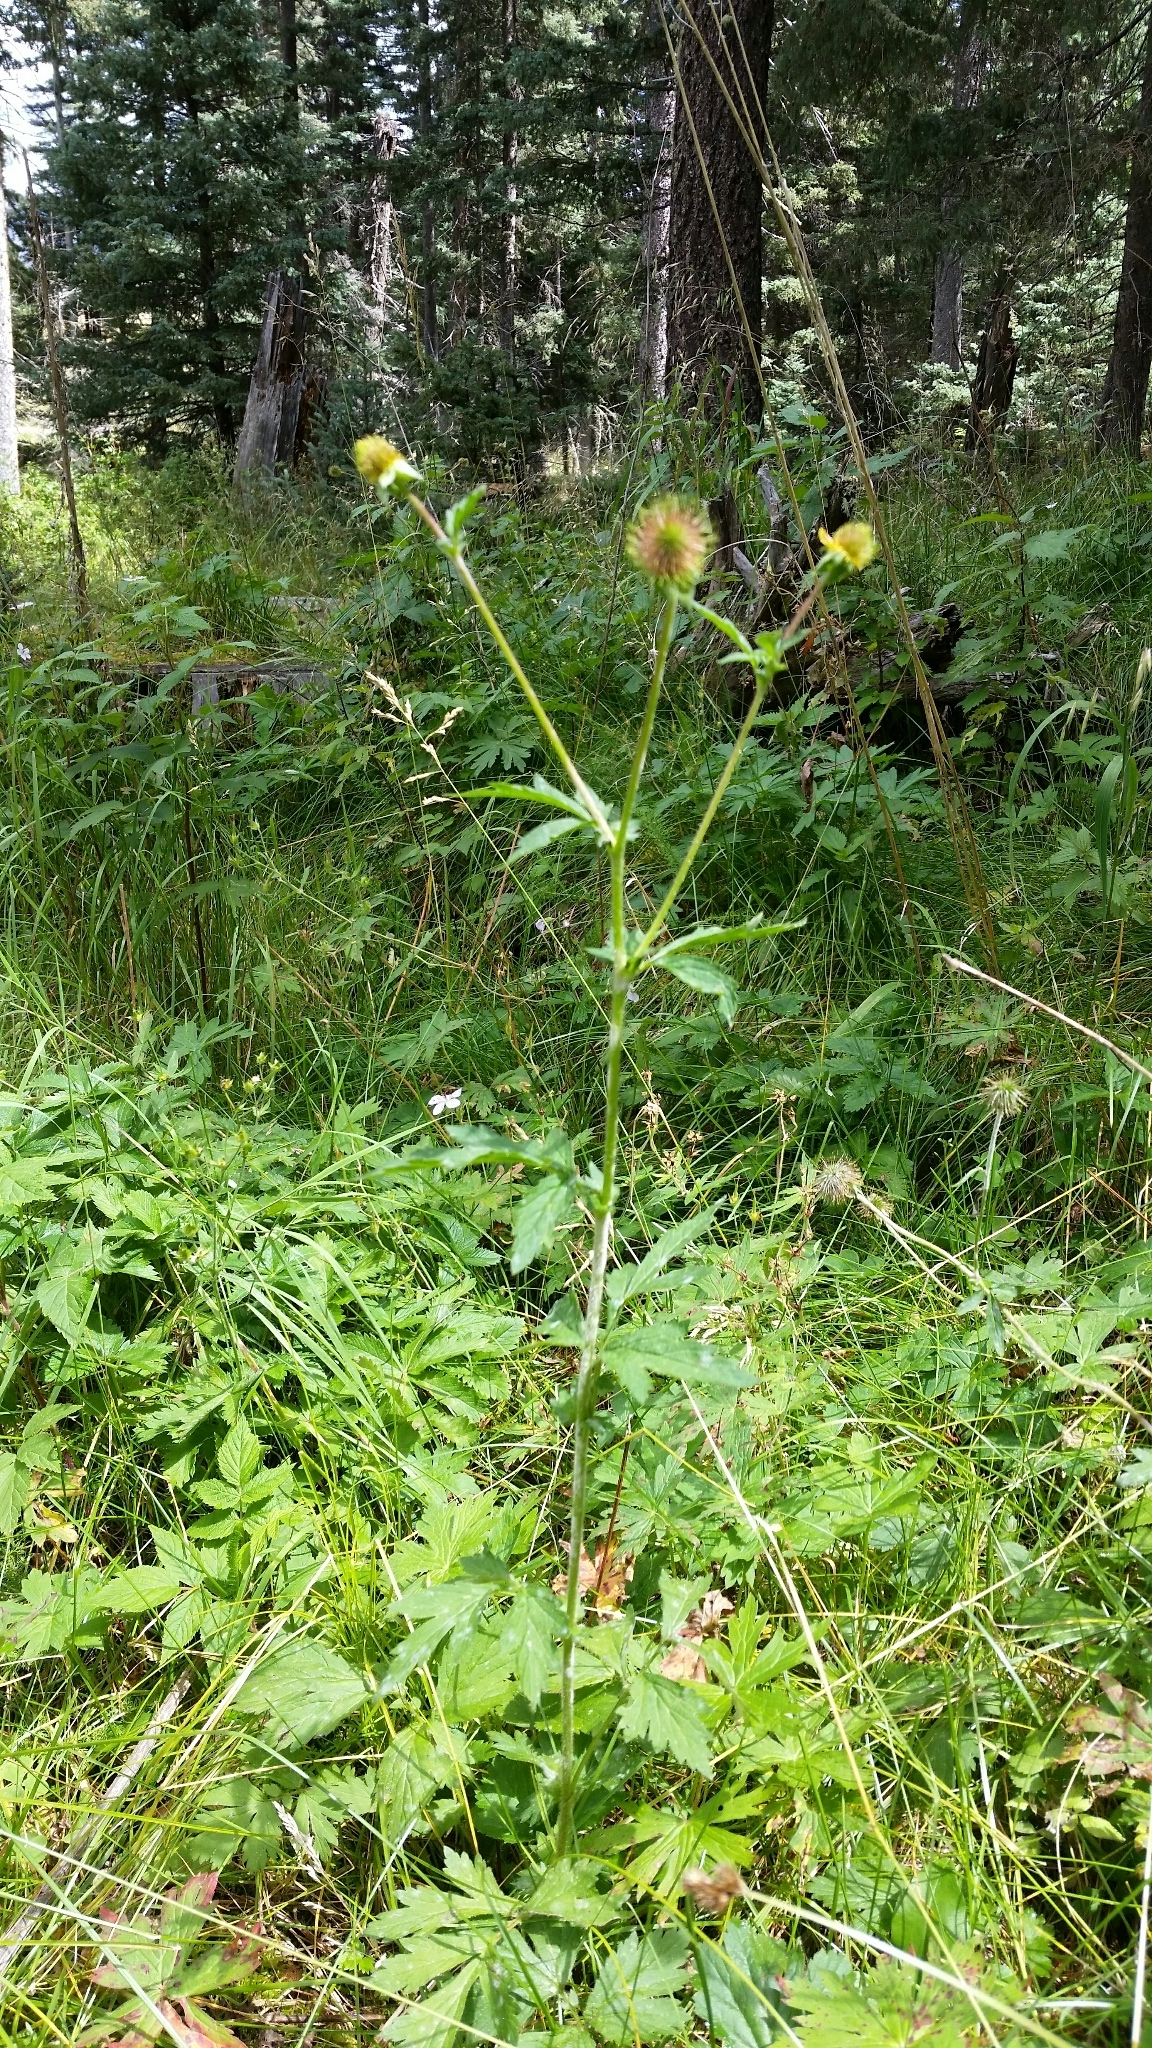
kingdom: Plantae
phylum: Tracheophyta
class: Magnoliopsida
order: Rosales
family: Rosaceae
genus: Geum
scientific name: Geum aleppicum
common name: Yellow avens
